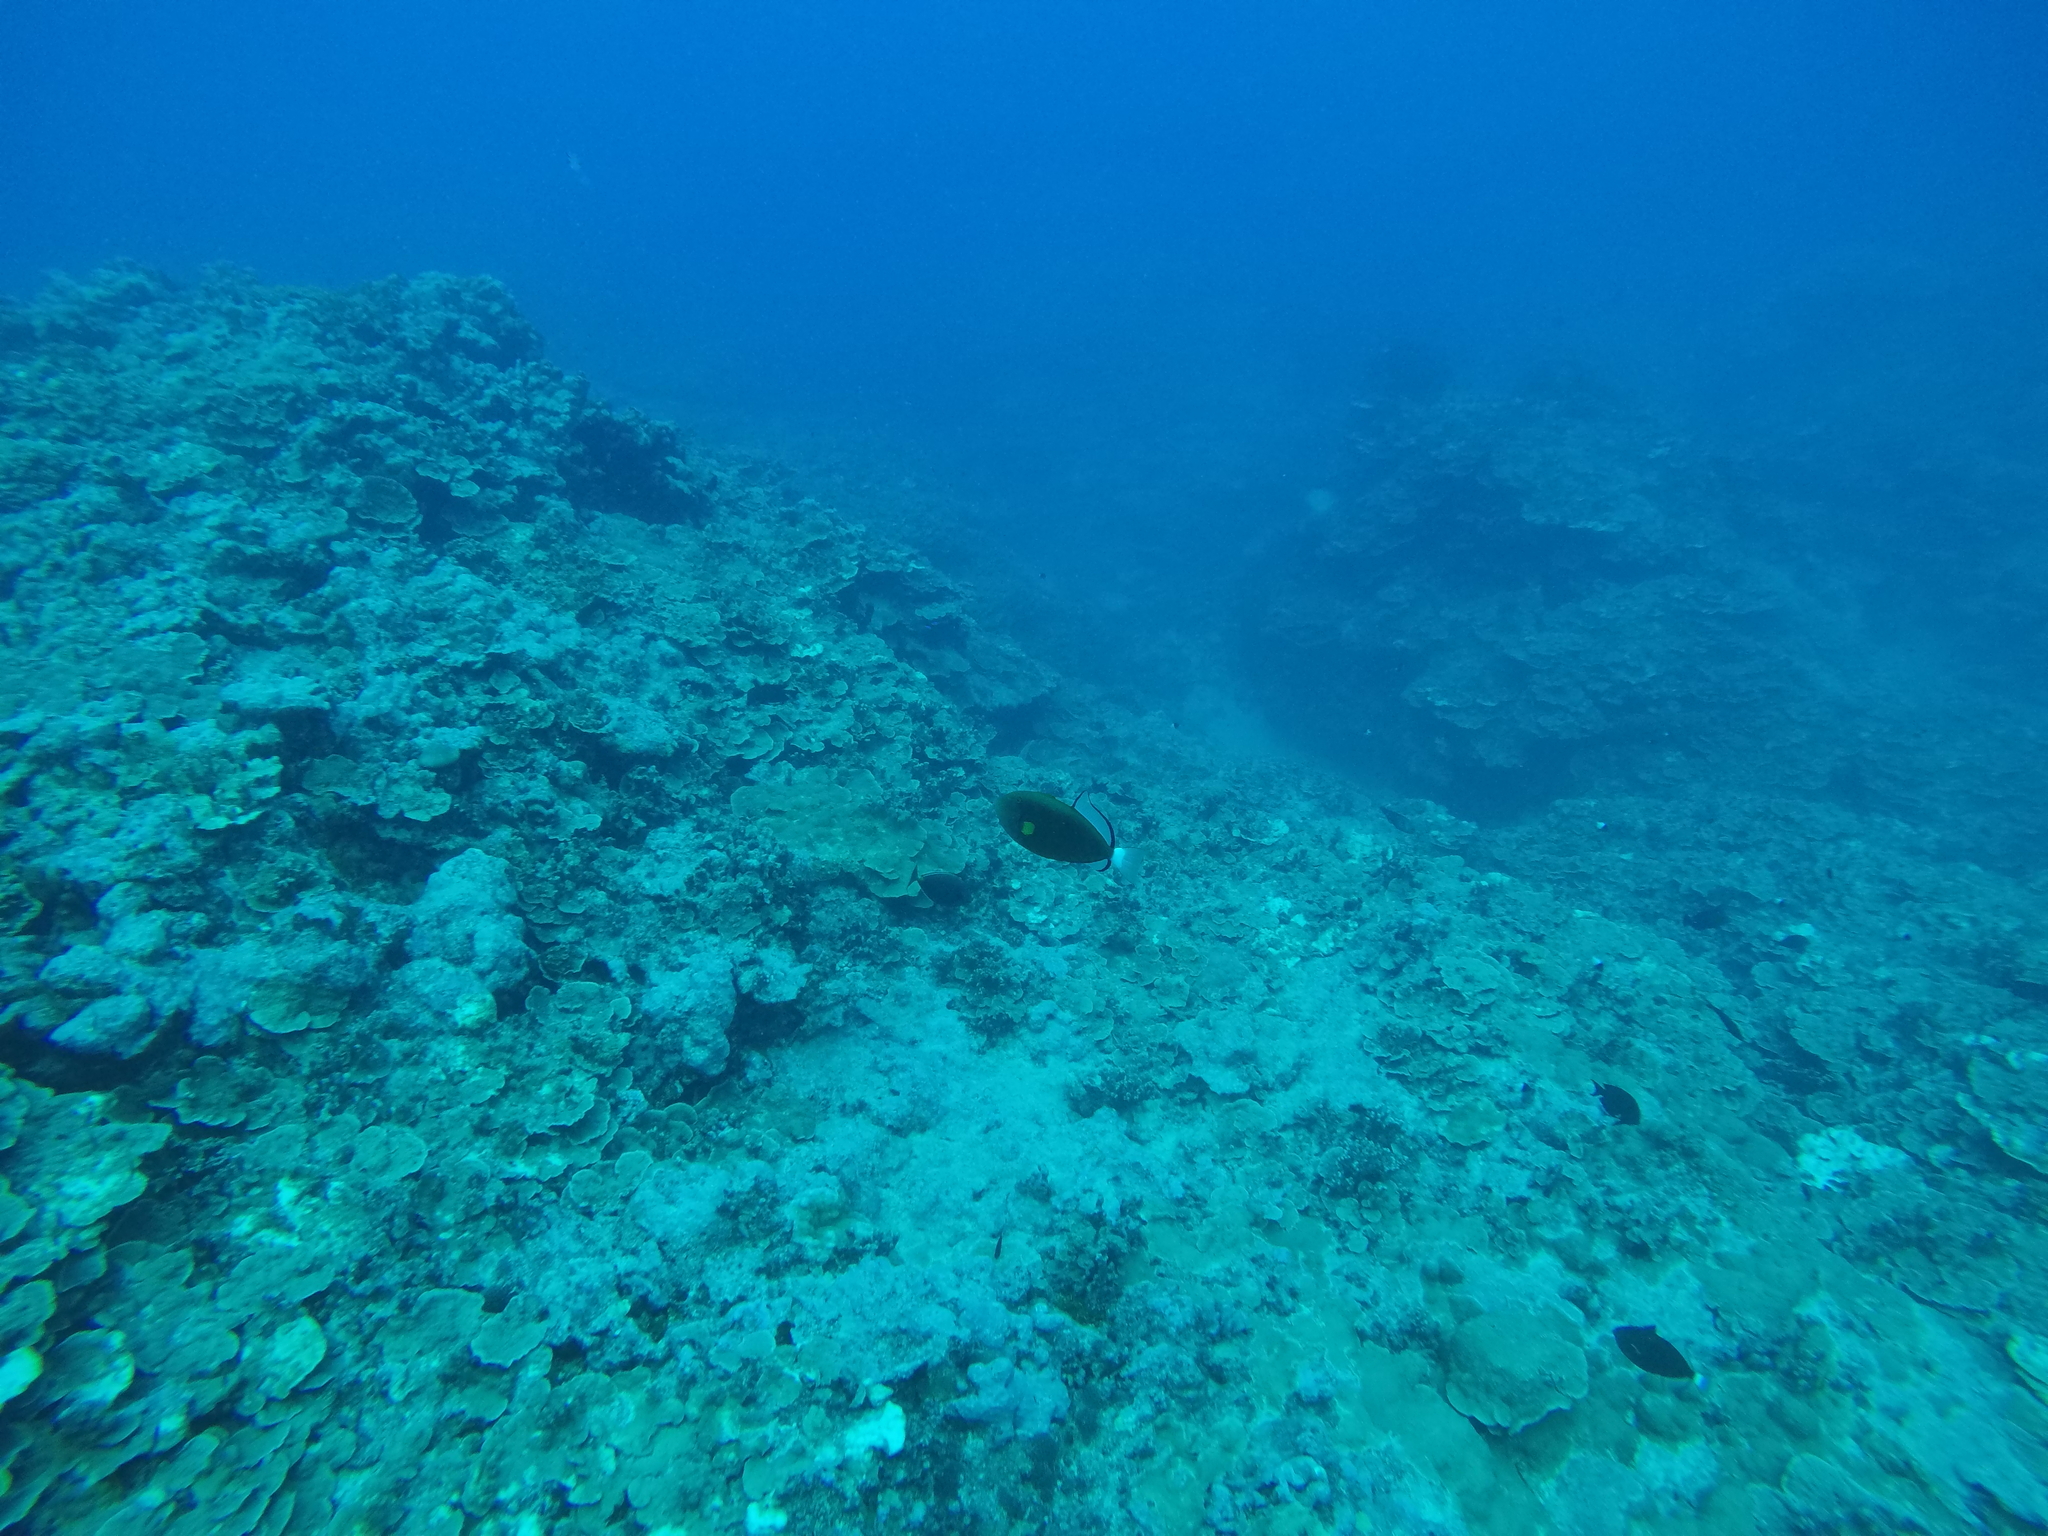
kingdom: Animalia
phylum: Chordata
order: Tetraodontiformes
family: Balistidae
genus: Melichthys
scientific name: Melichthys vidua
